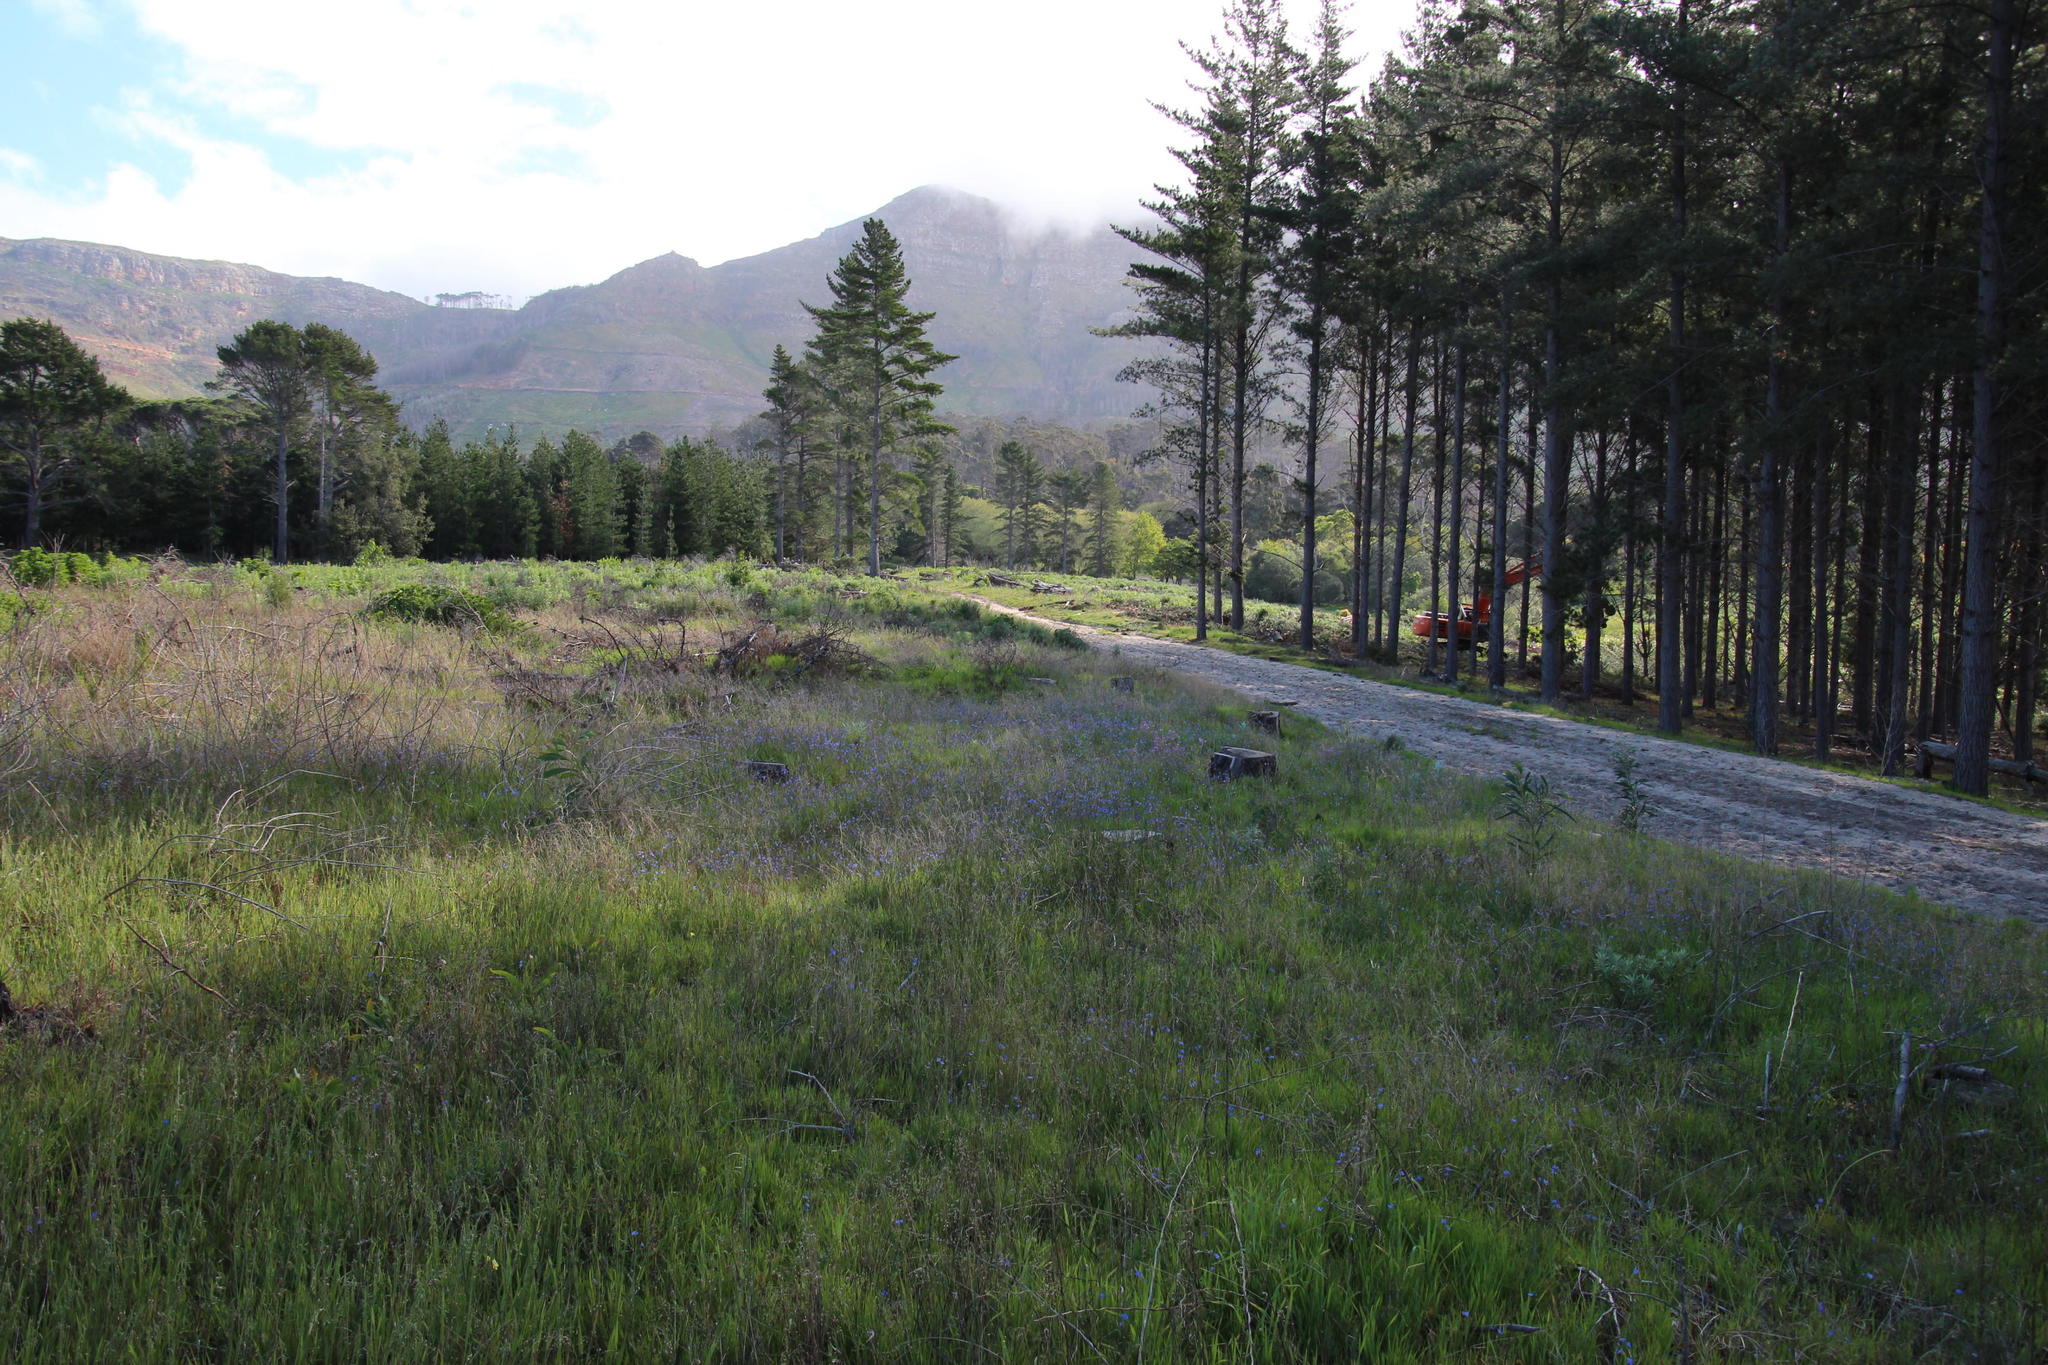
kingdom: Plantae
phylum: Tracheophyta
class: Magnoliopsida
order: Brassicales
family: Brassicaceae
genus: Heliophila
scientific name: Heliophila africana
